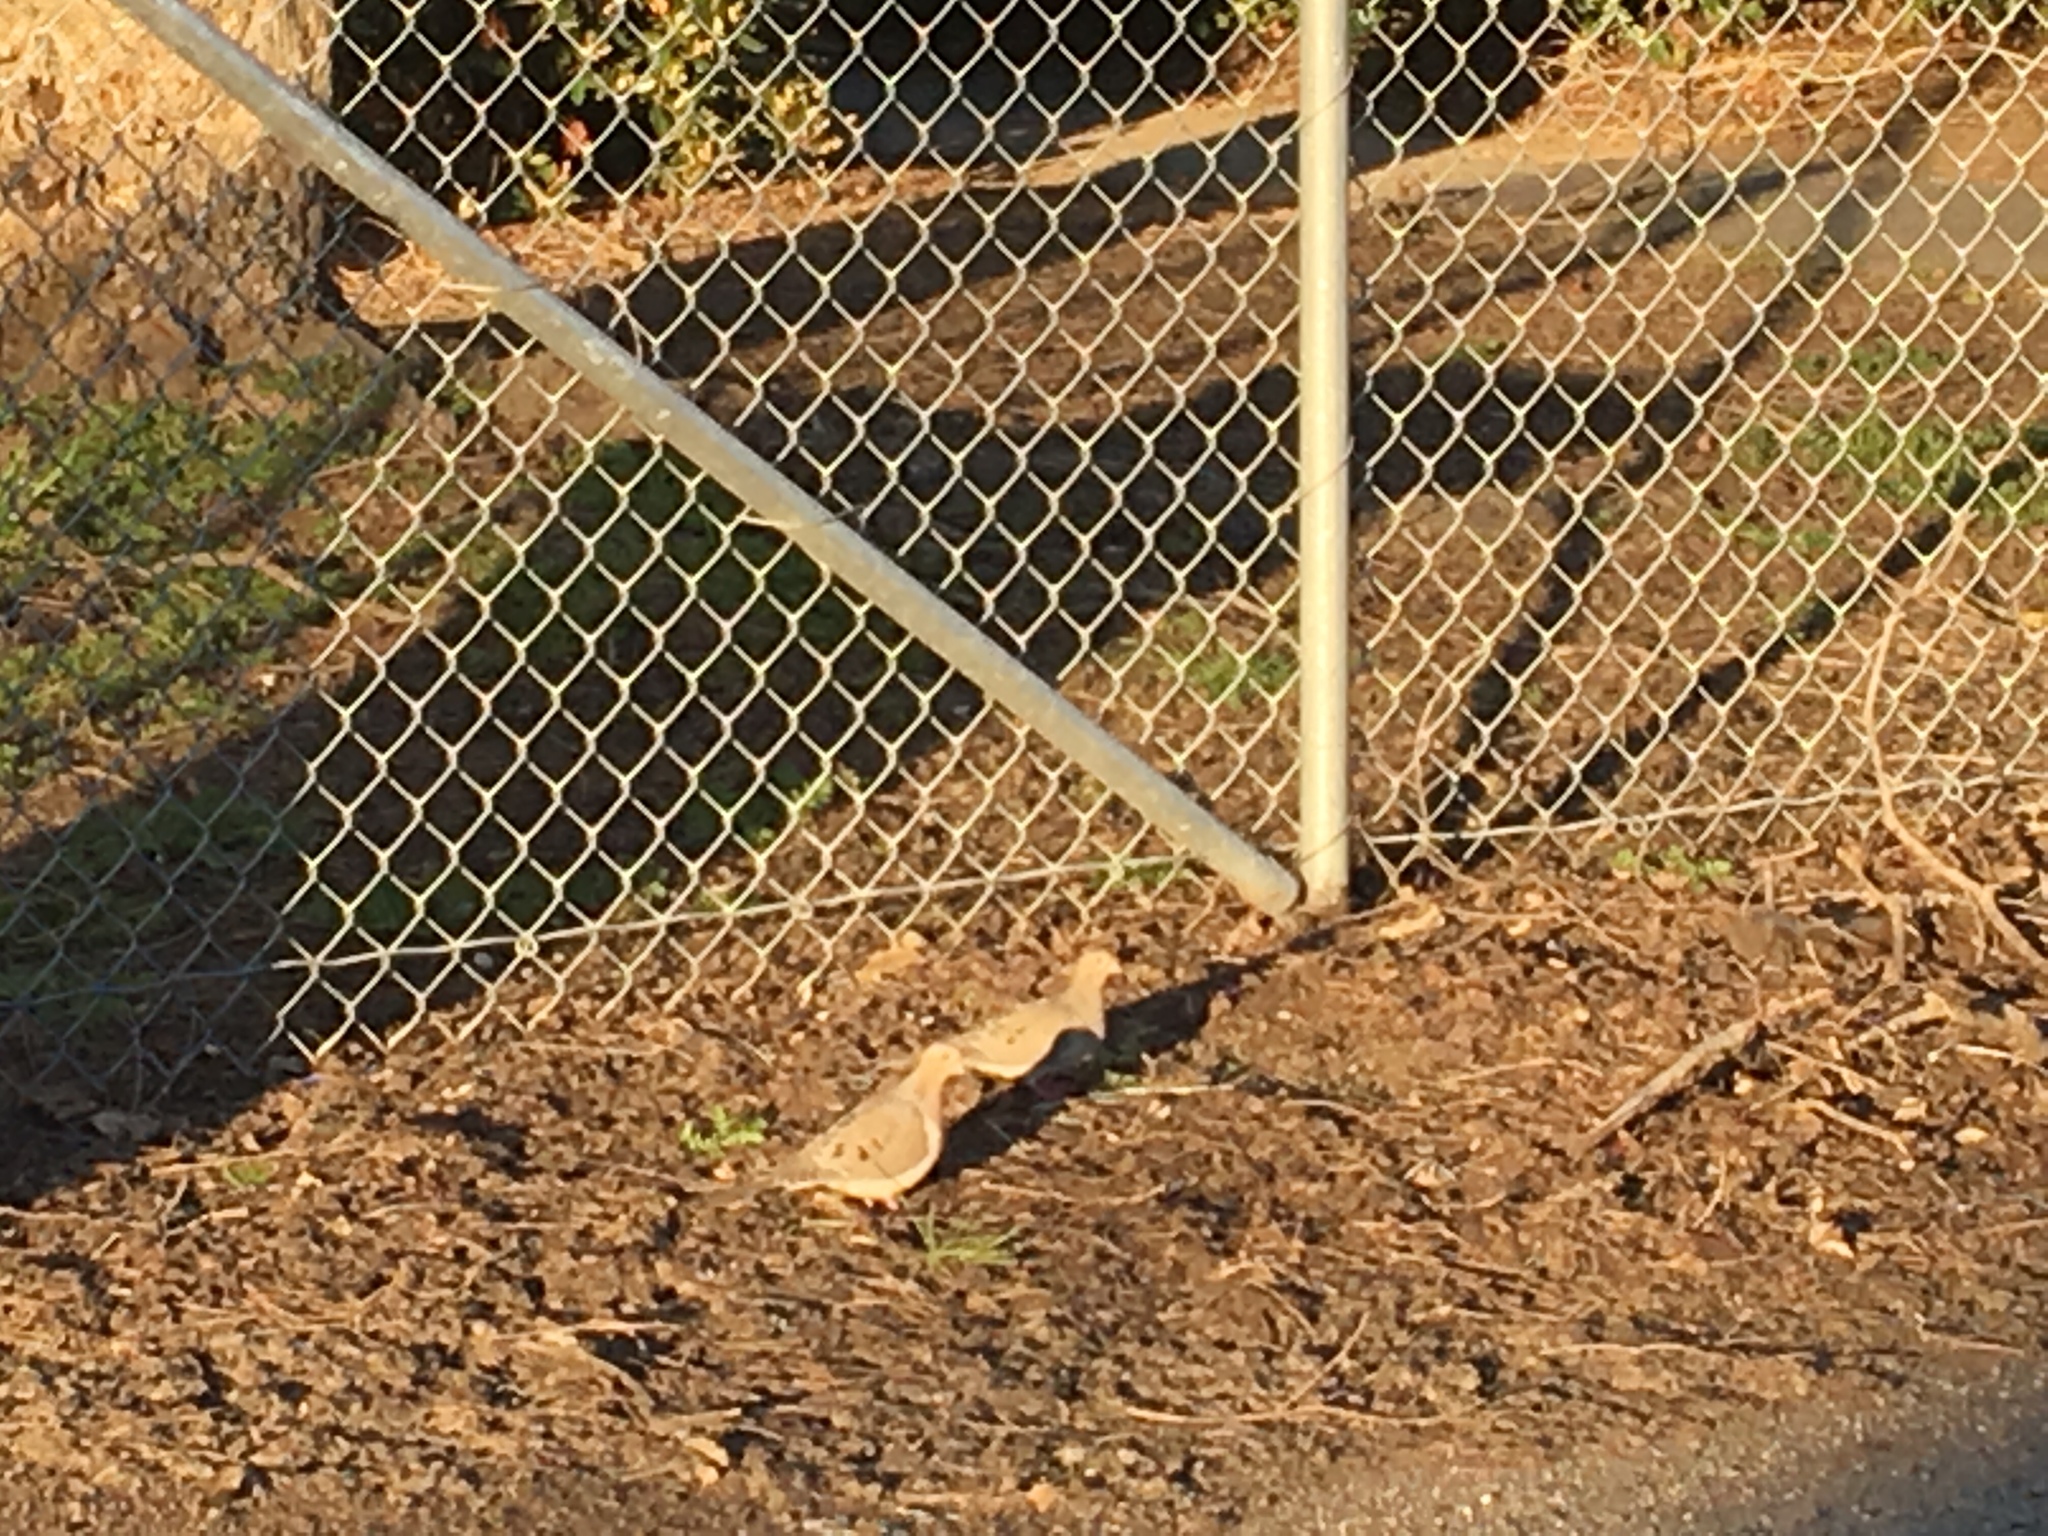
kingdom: Animalia
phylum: Chordata
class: Aves
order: Columbiformes
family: Columbidae
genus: Zenaida
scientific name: Zenaida macroura
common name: Mourning dove
